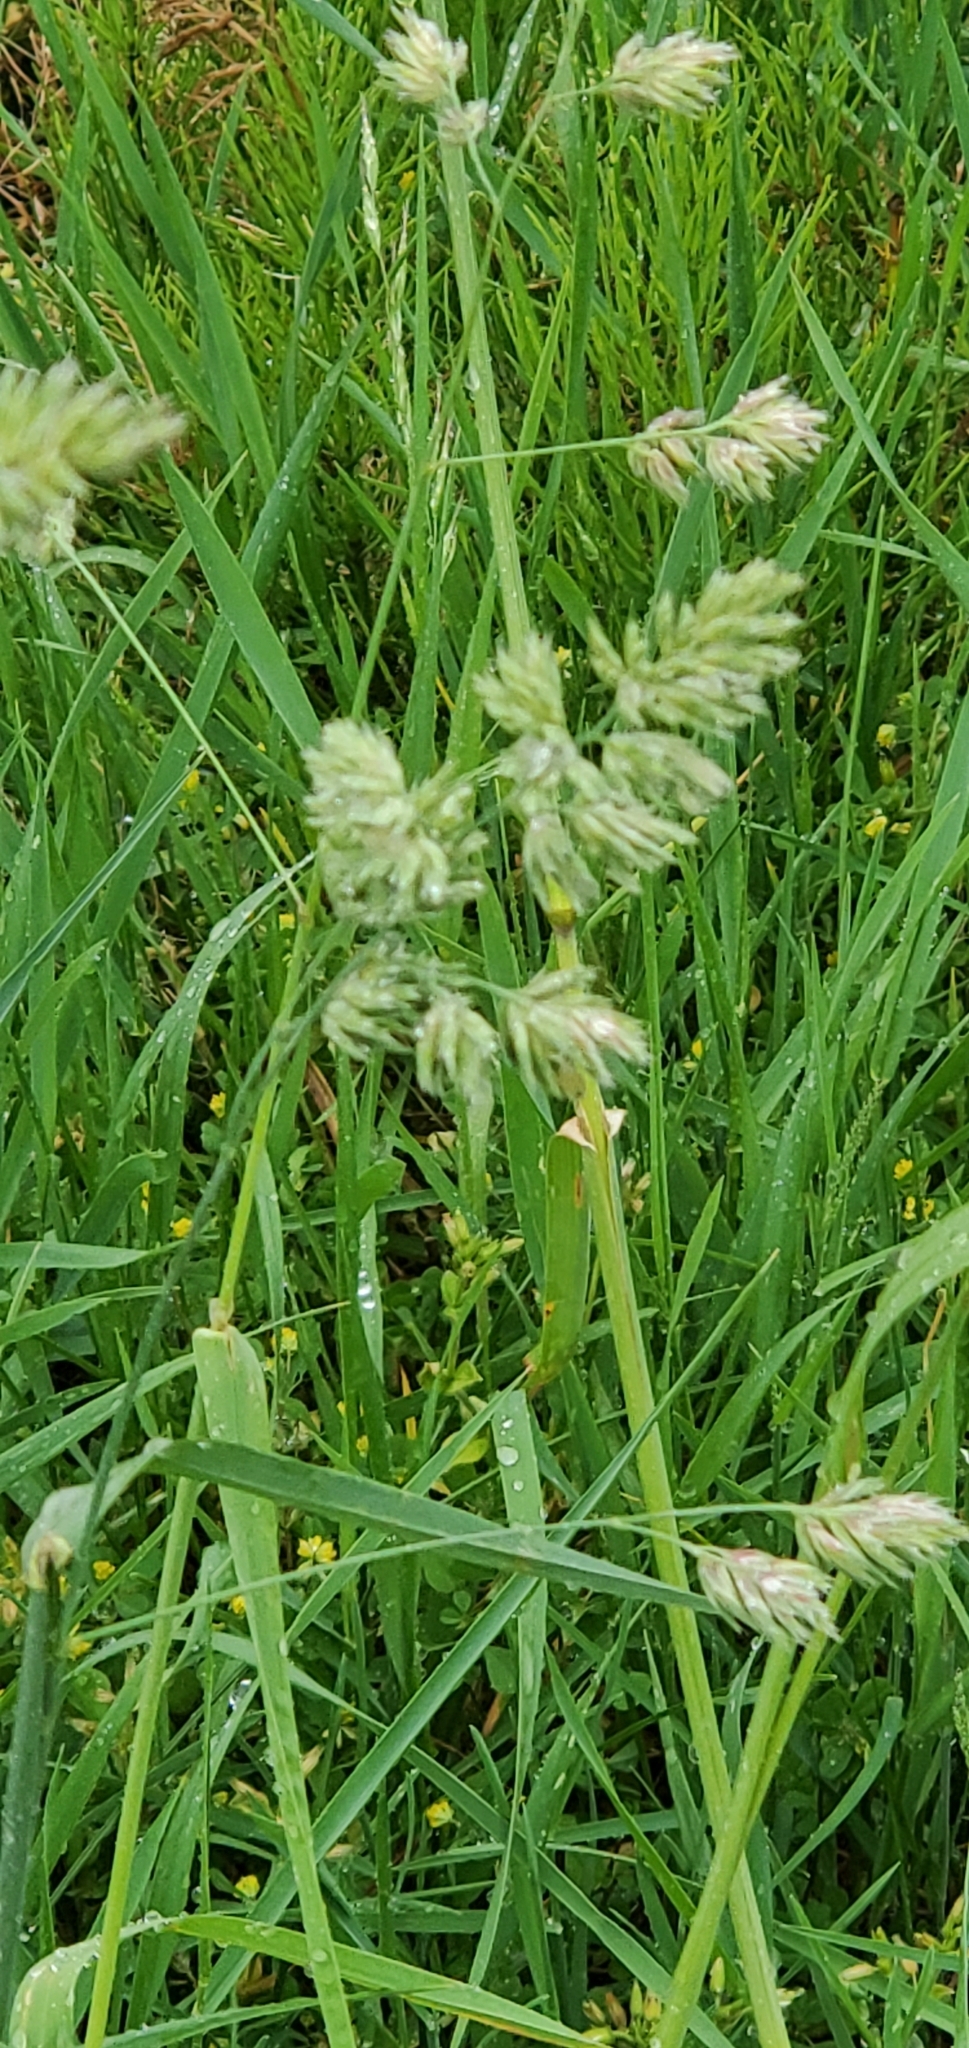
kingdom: Plantae
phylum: Tracheophyta
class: Liliopsida
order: Poales
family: Poaceae
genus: Dactylis
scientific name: Dactylis glomerata
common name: Orchardgrass
